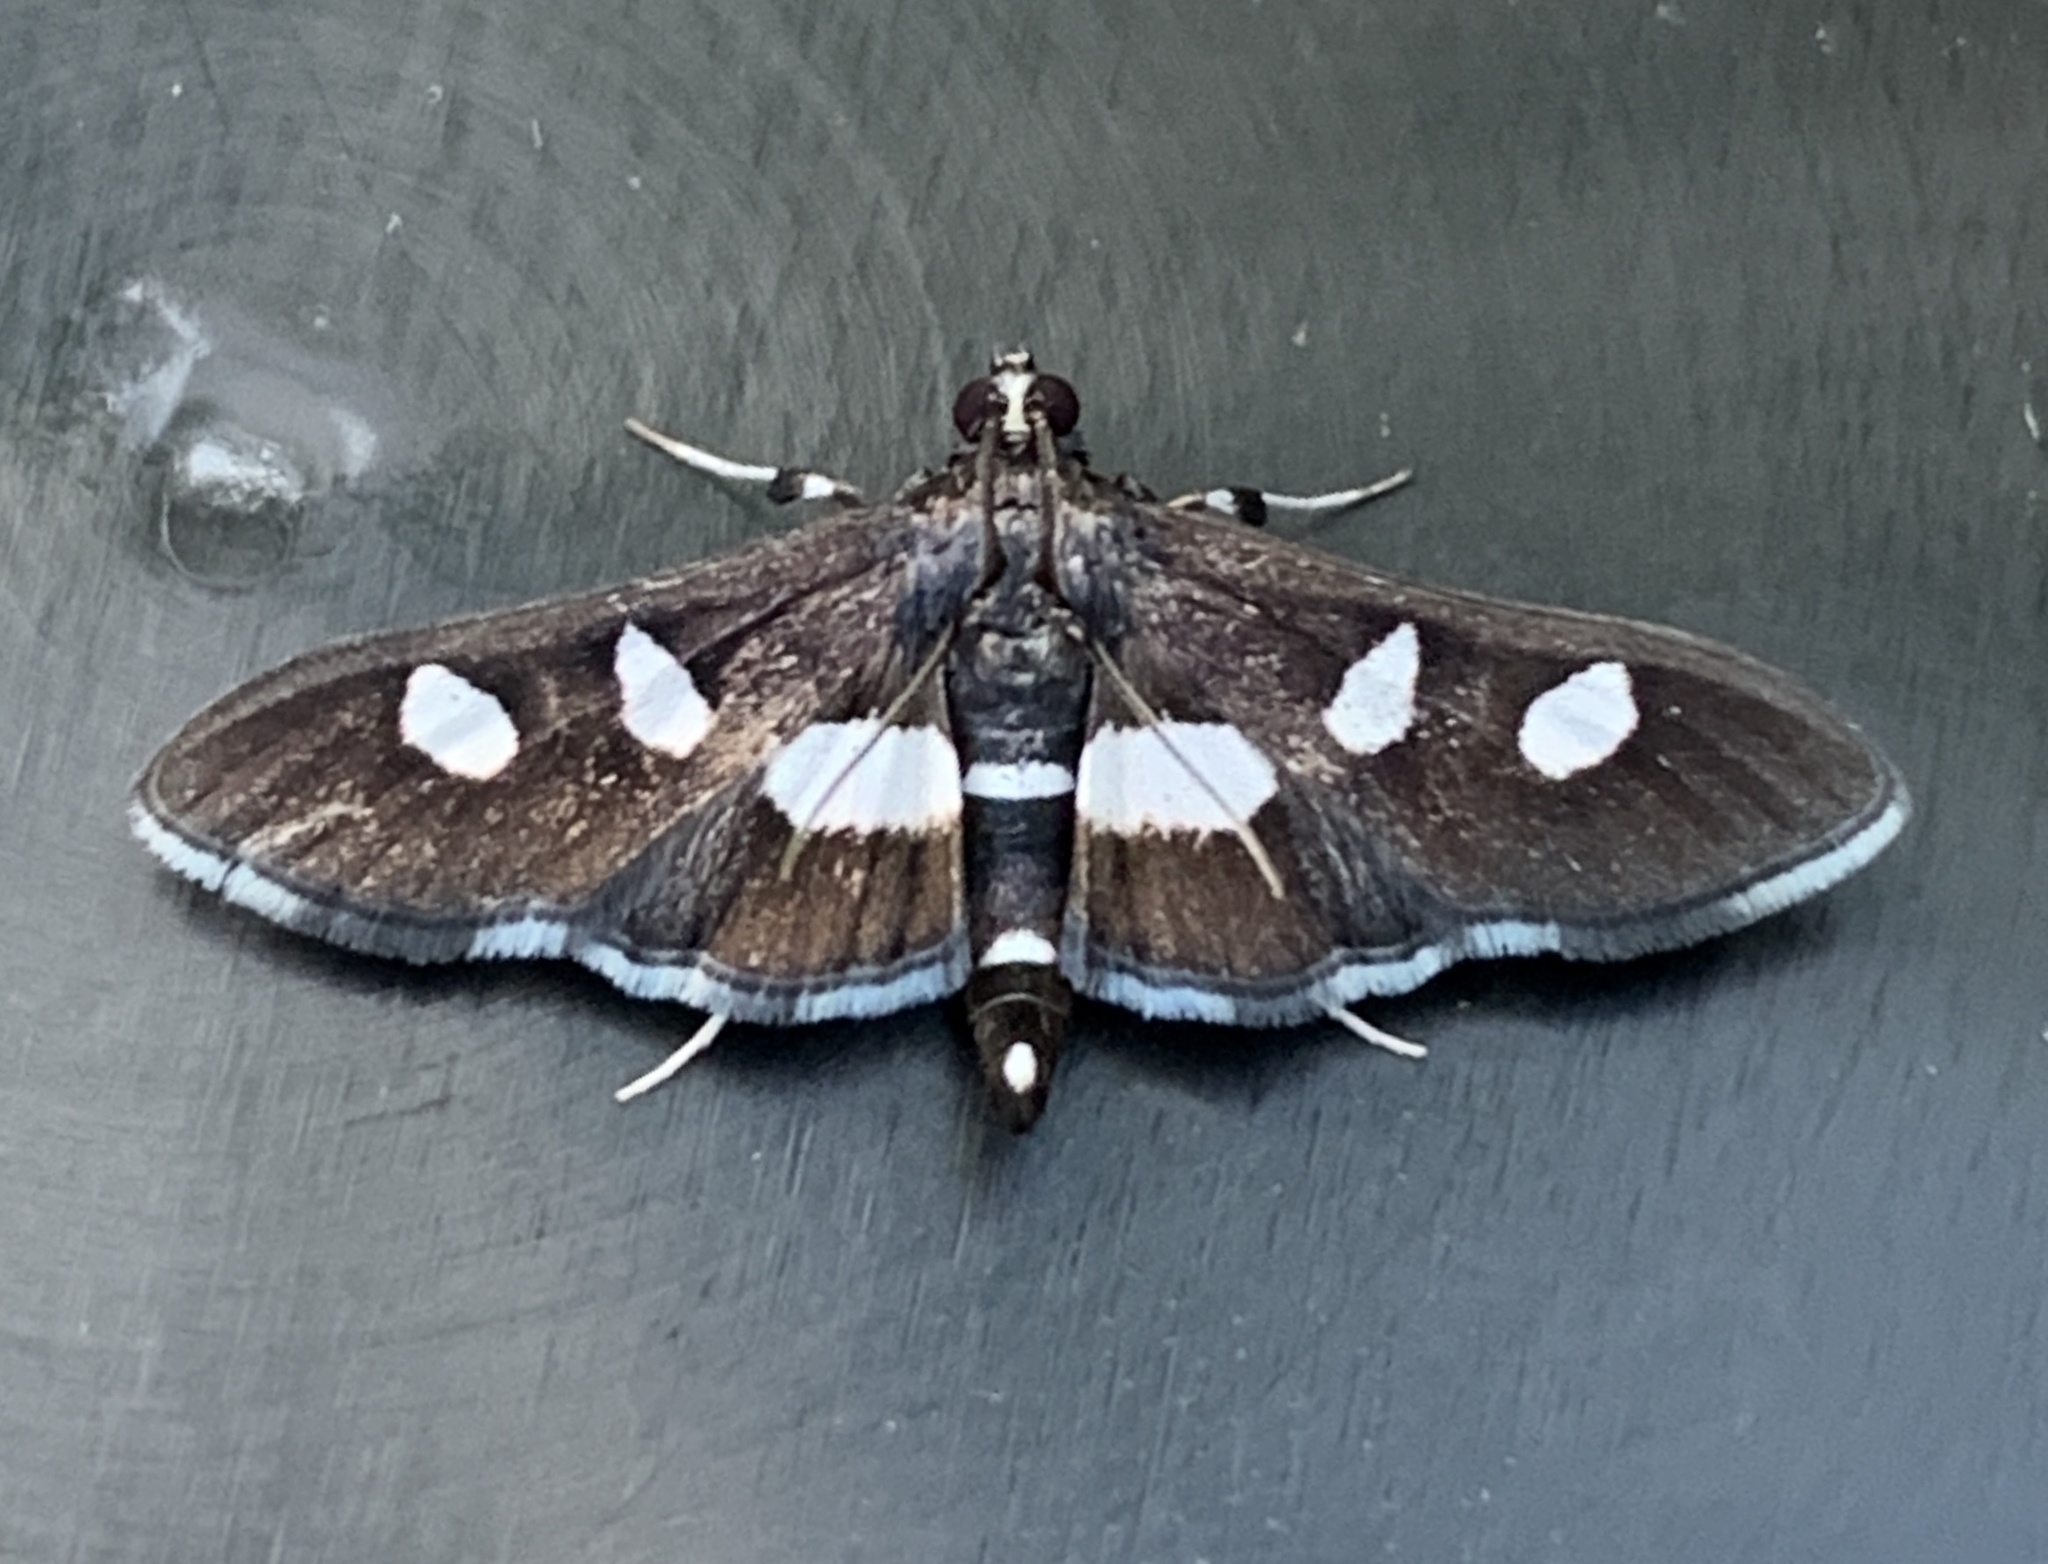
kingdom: Animalia
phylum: Arthropoda
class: Insecta
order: Lepidoptera
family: Crambidae
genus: Desmia
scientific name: Desmia funeralis
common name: Grape leaf folder moth
